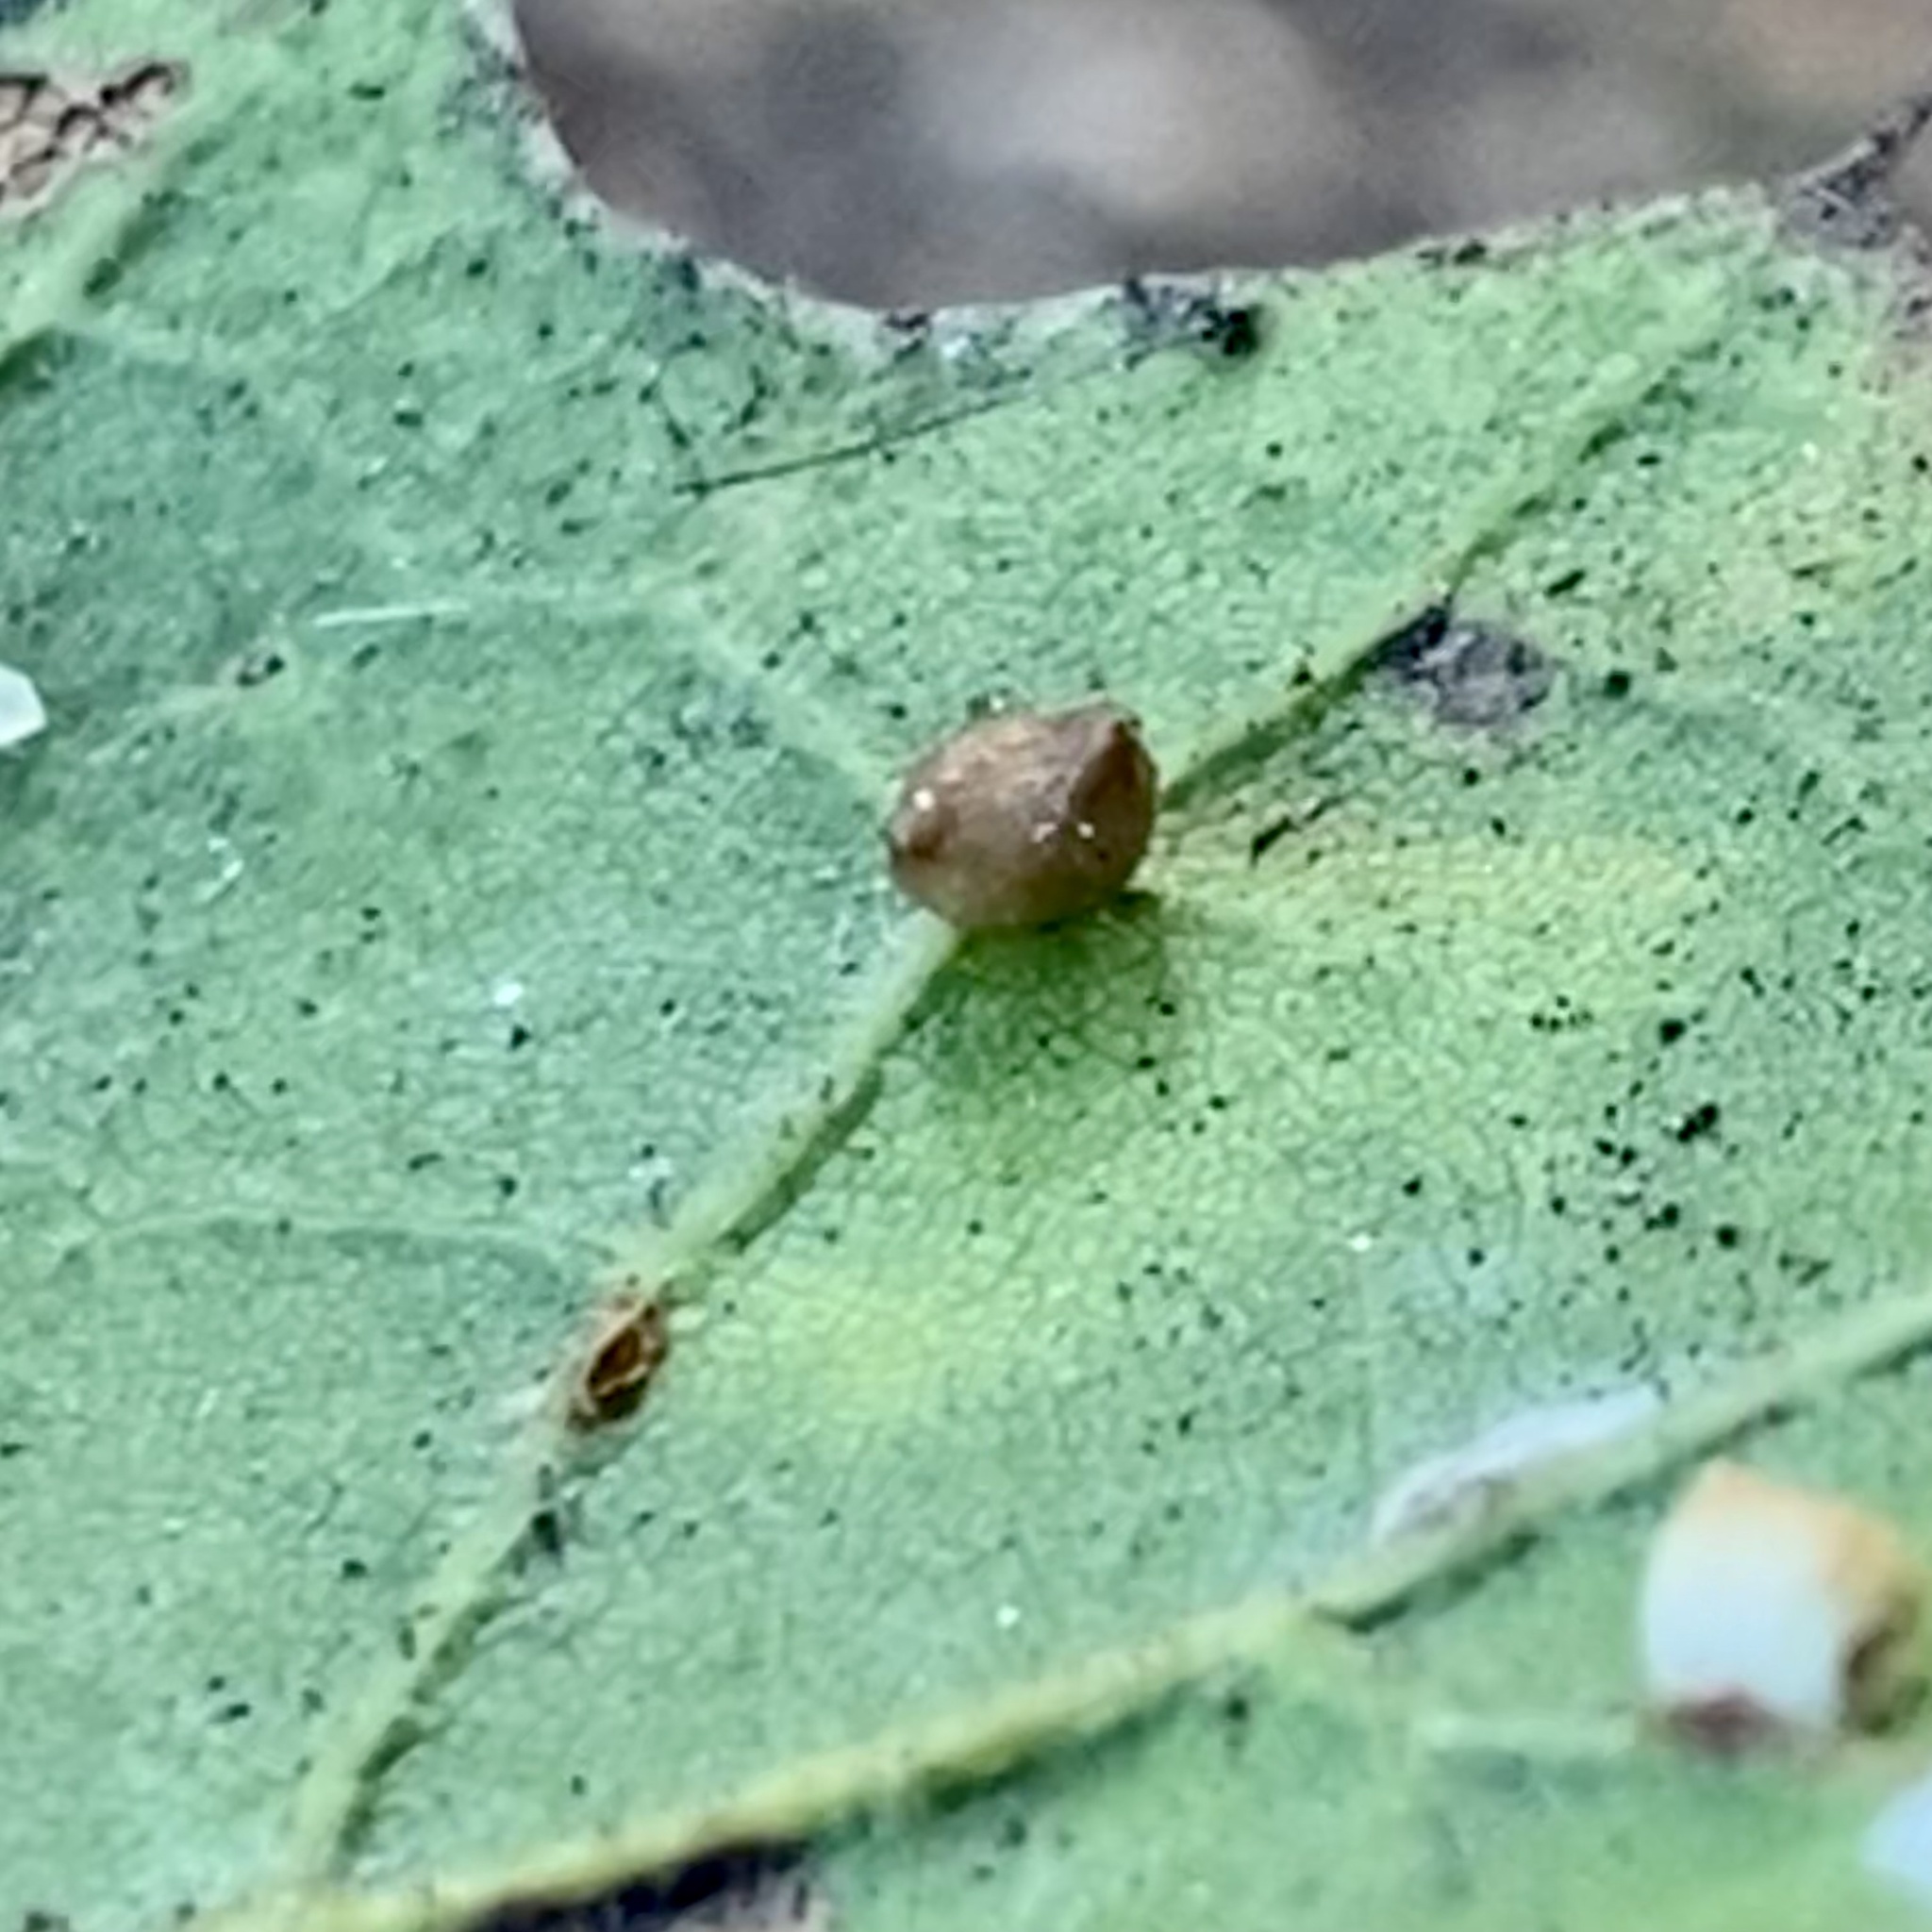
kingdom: Animalia
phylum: Arthropoda
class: Insecta
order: Hymenoptera
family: Cynipidae
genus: Dryocosmus
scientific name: Dryocosmus
